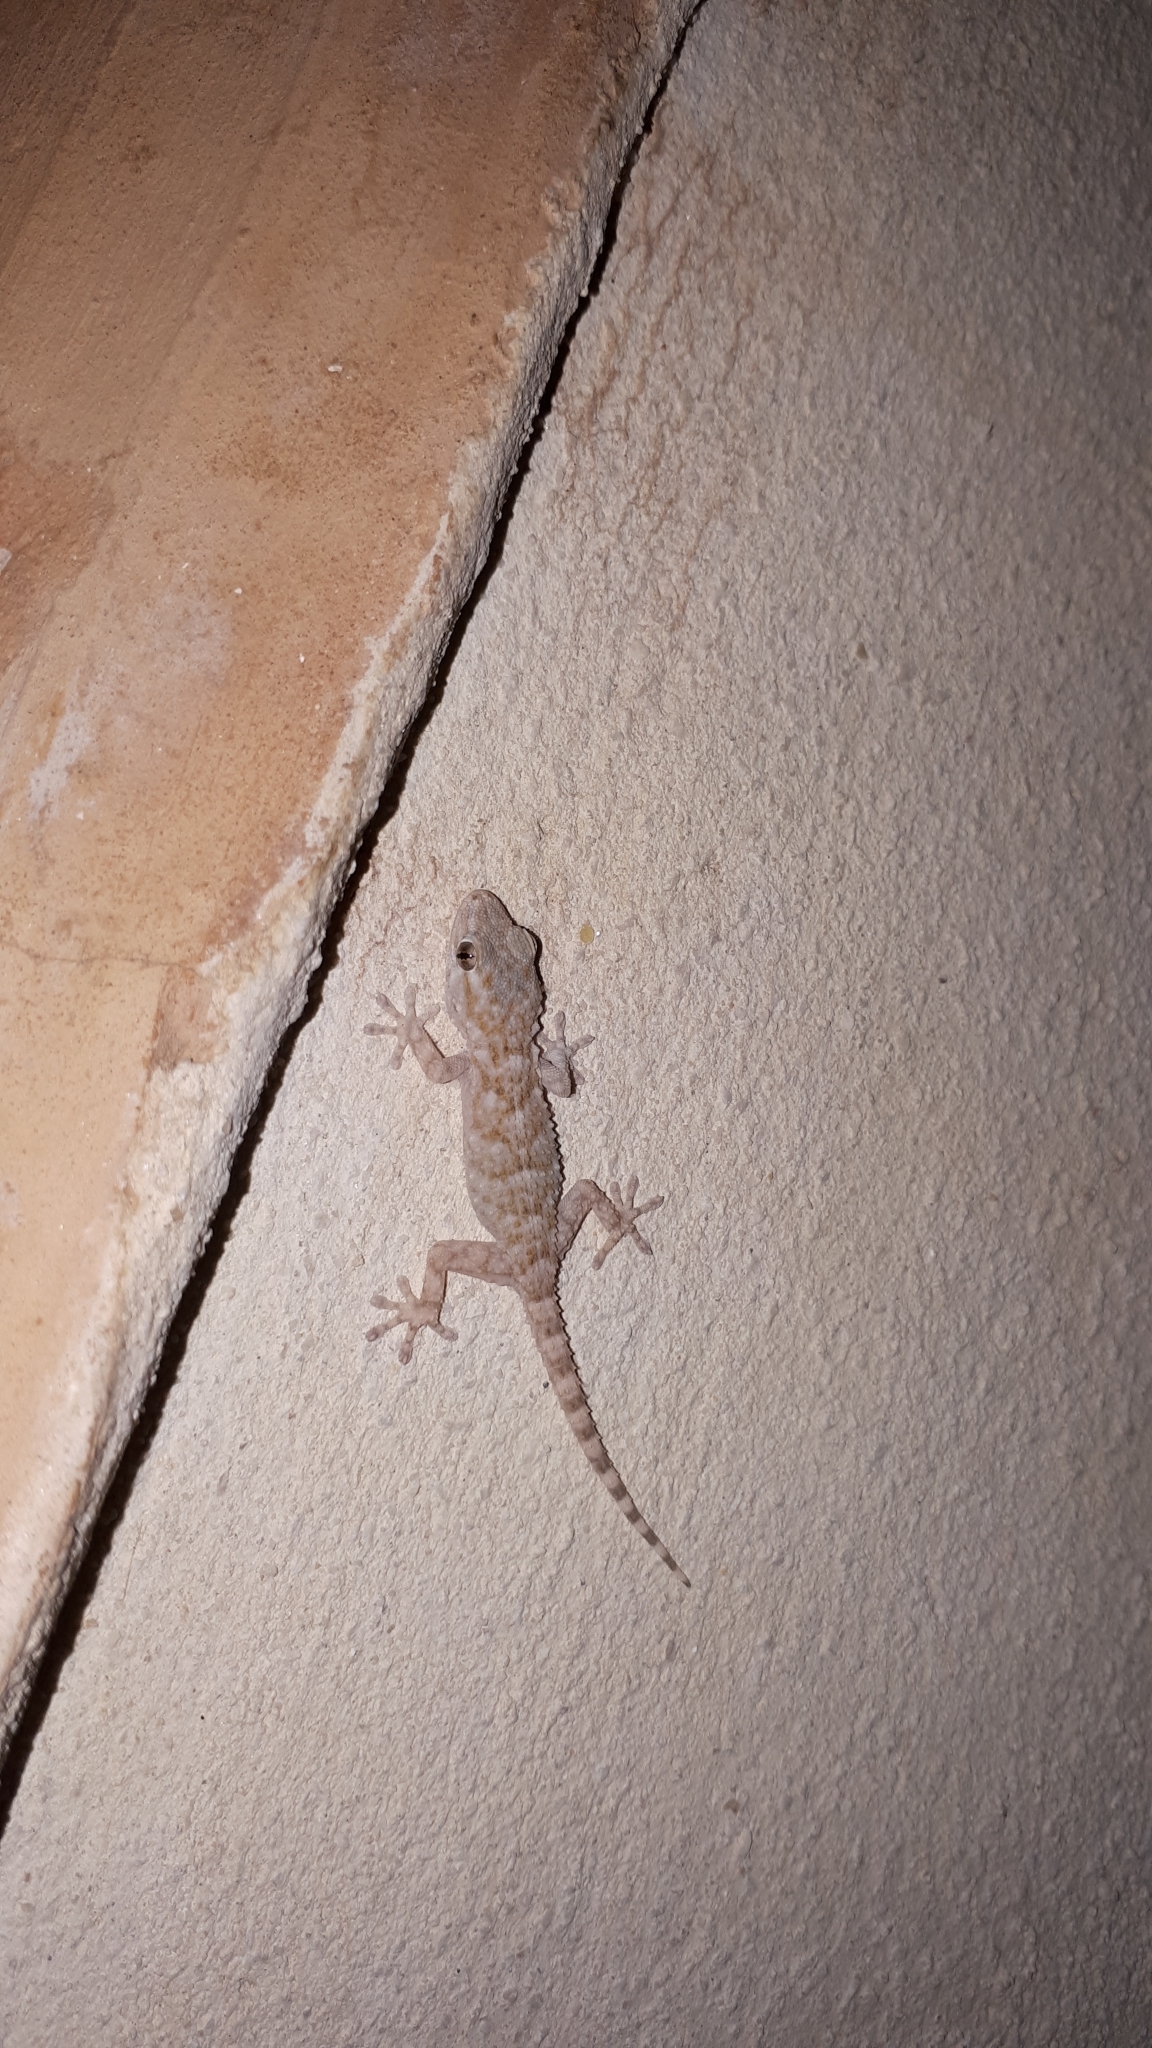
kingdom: Animalia
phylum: Chordata
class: Squamata
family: Phyllodactylidae
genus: Tarentola
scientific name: Tarentola mauritanica
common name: Moorish gecko
